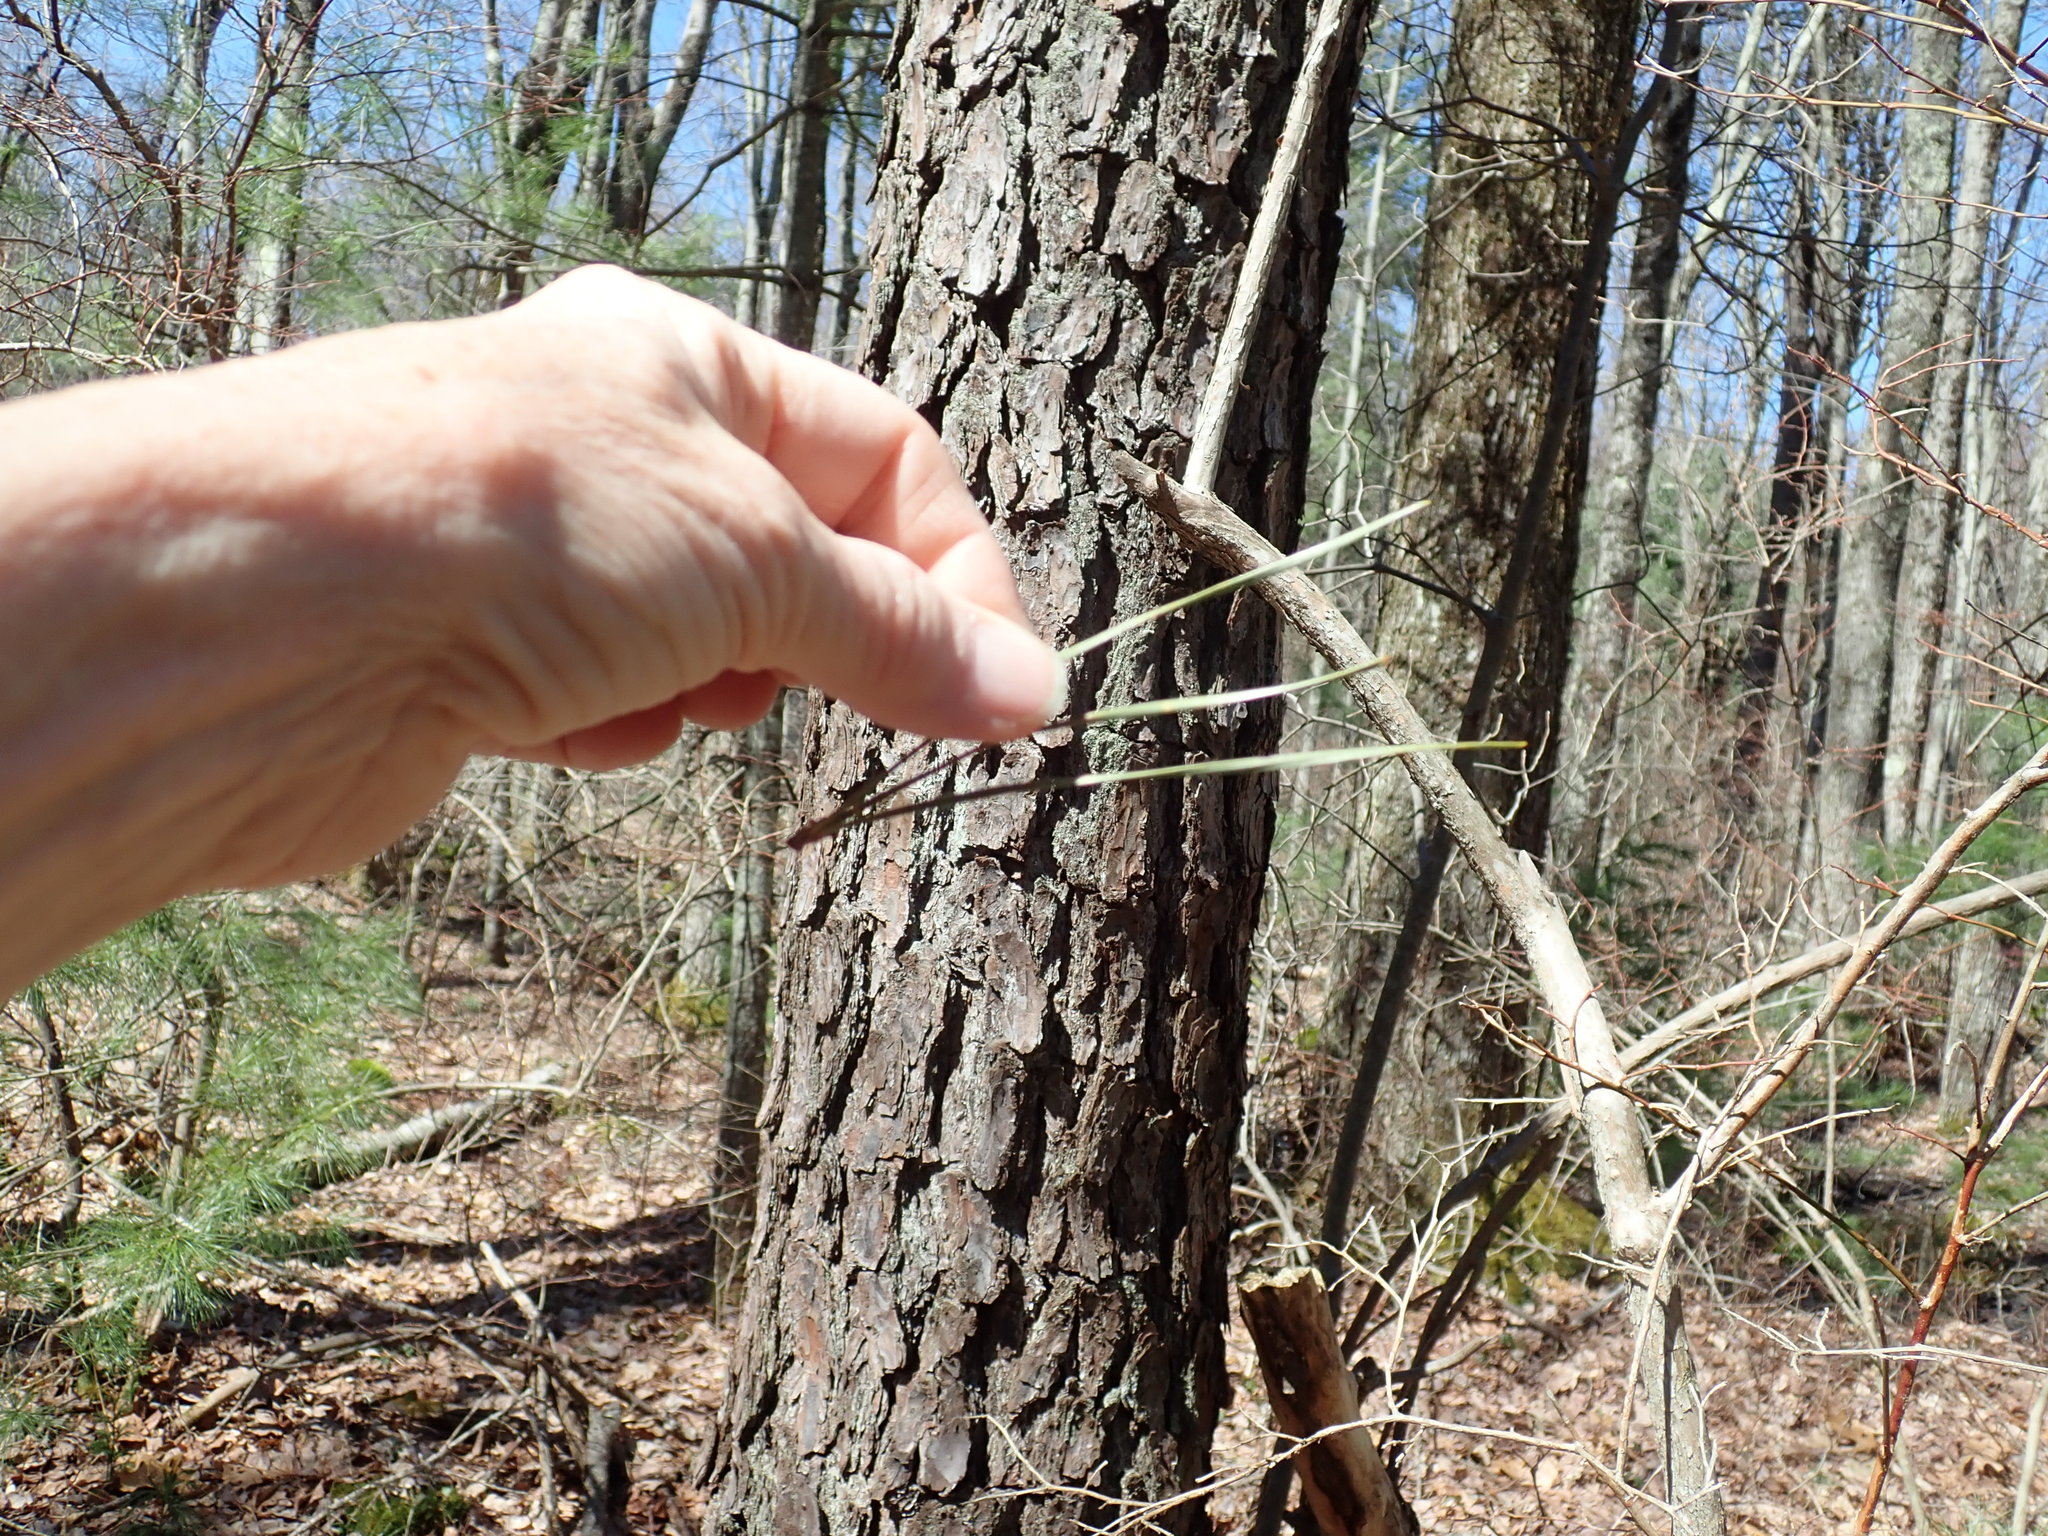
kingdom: Plantae
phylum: Tracheophyta
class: Pinopsida
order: Pinales
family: Pinaceae
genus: Pinus
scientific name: Pinus rigida
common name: Pitch pine
